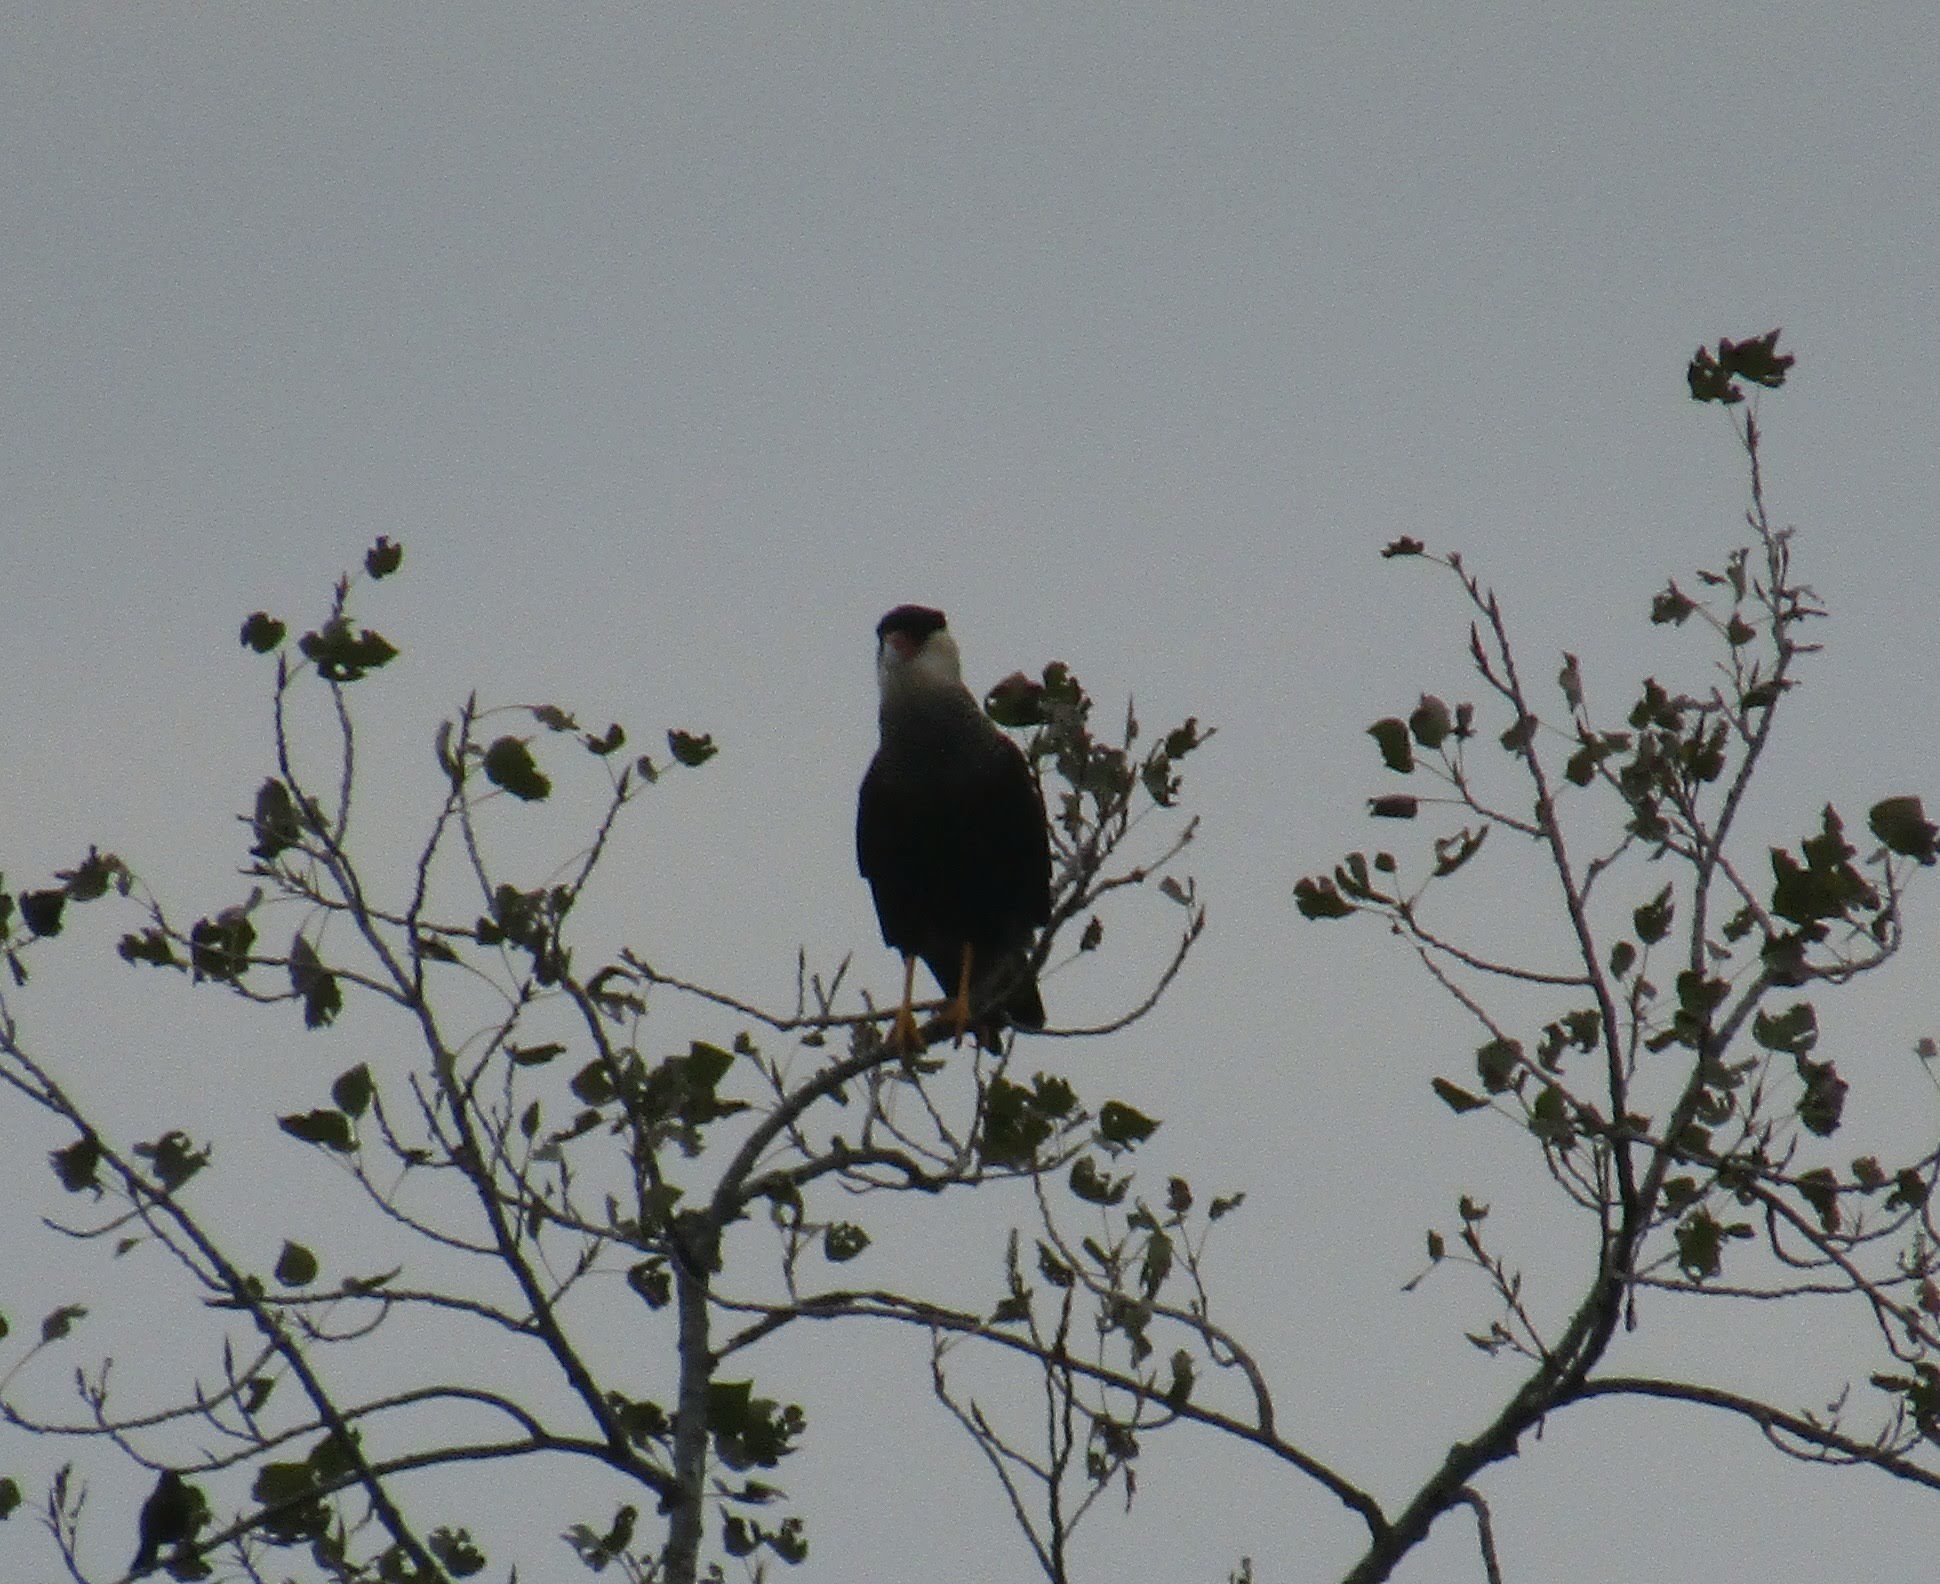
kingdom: Animalia
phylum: Chordata
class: Aves
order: Falconiformes
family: Falconidae
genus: Caracara
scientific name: Caracara plancus
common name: Southern caracara
